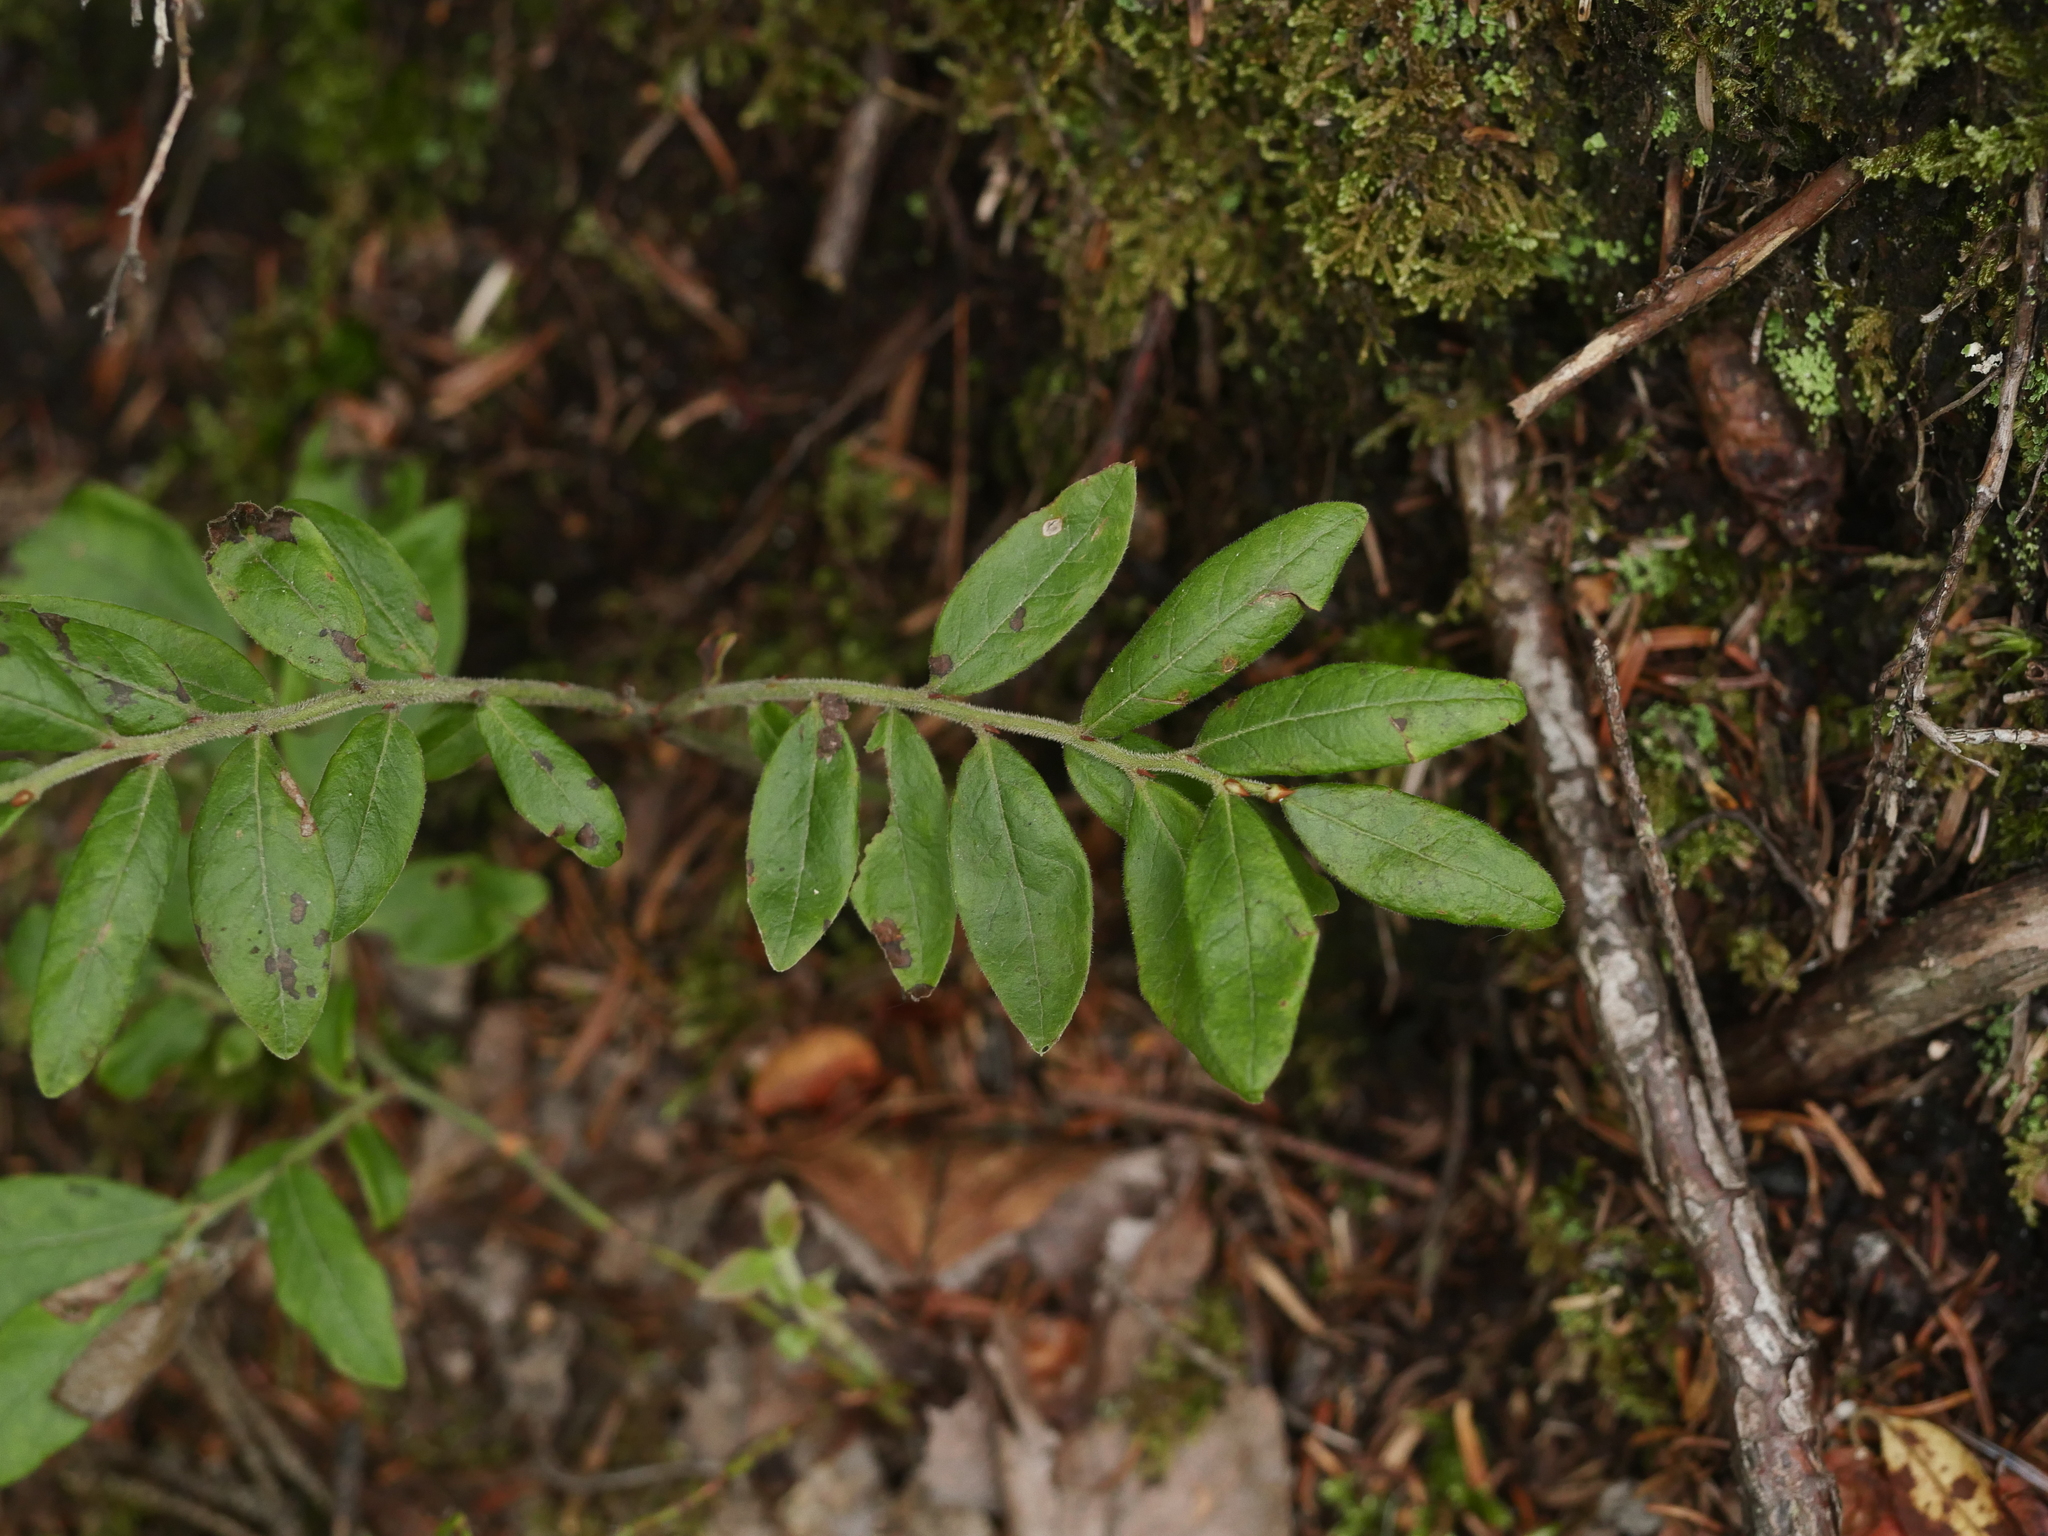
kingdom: Plantae
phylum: Tracheophyta
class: Magnoliopsida
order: Ericales
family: Ericaceae
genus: Vaccinium
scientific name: Vaccinium myrtilloides
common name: Canada blueberry
